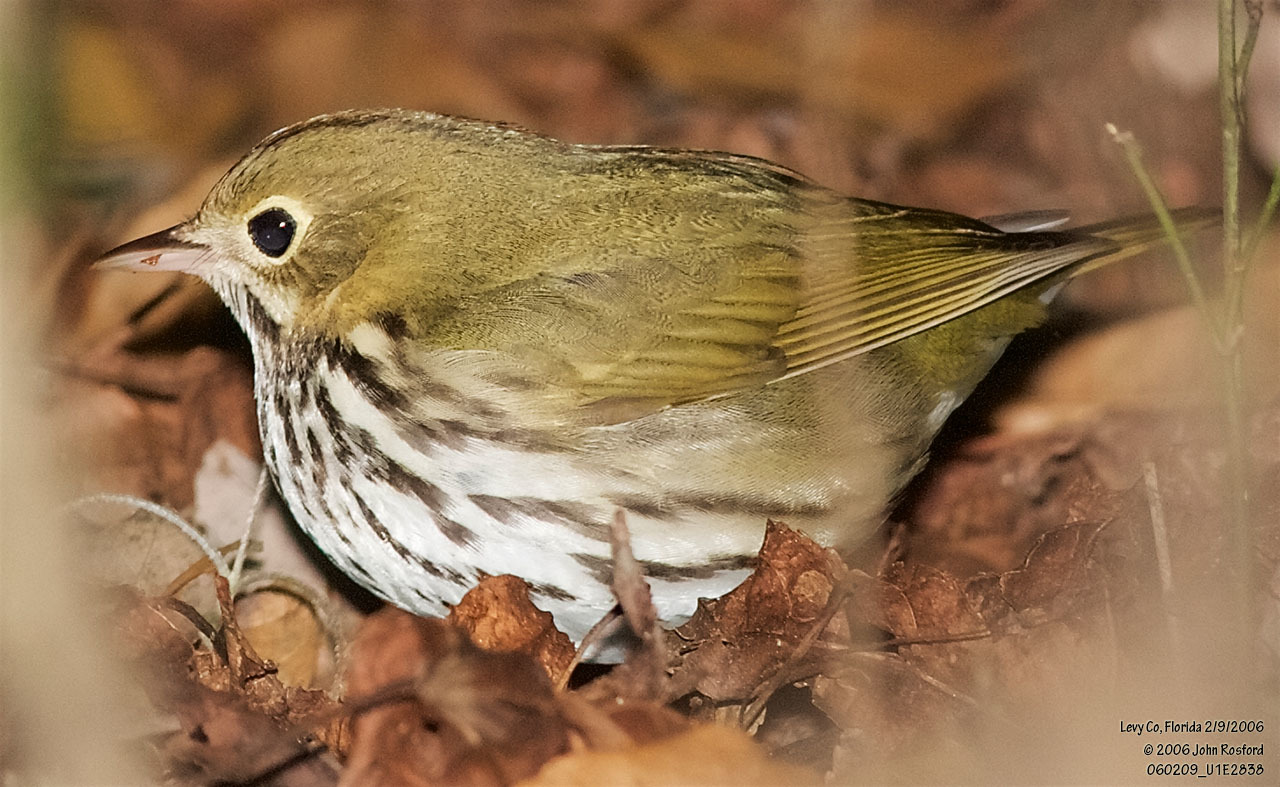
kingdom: Animalia
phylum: Chordata
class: Aves
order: Passeriformes
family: Parulidae
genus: Seiurus
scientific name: Seiurus aurocapilla
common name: Ovenbird
